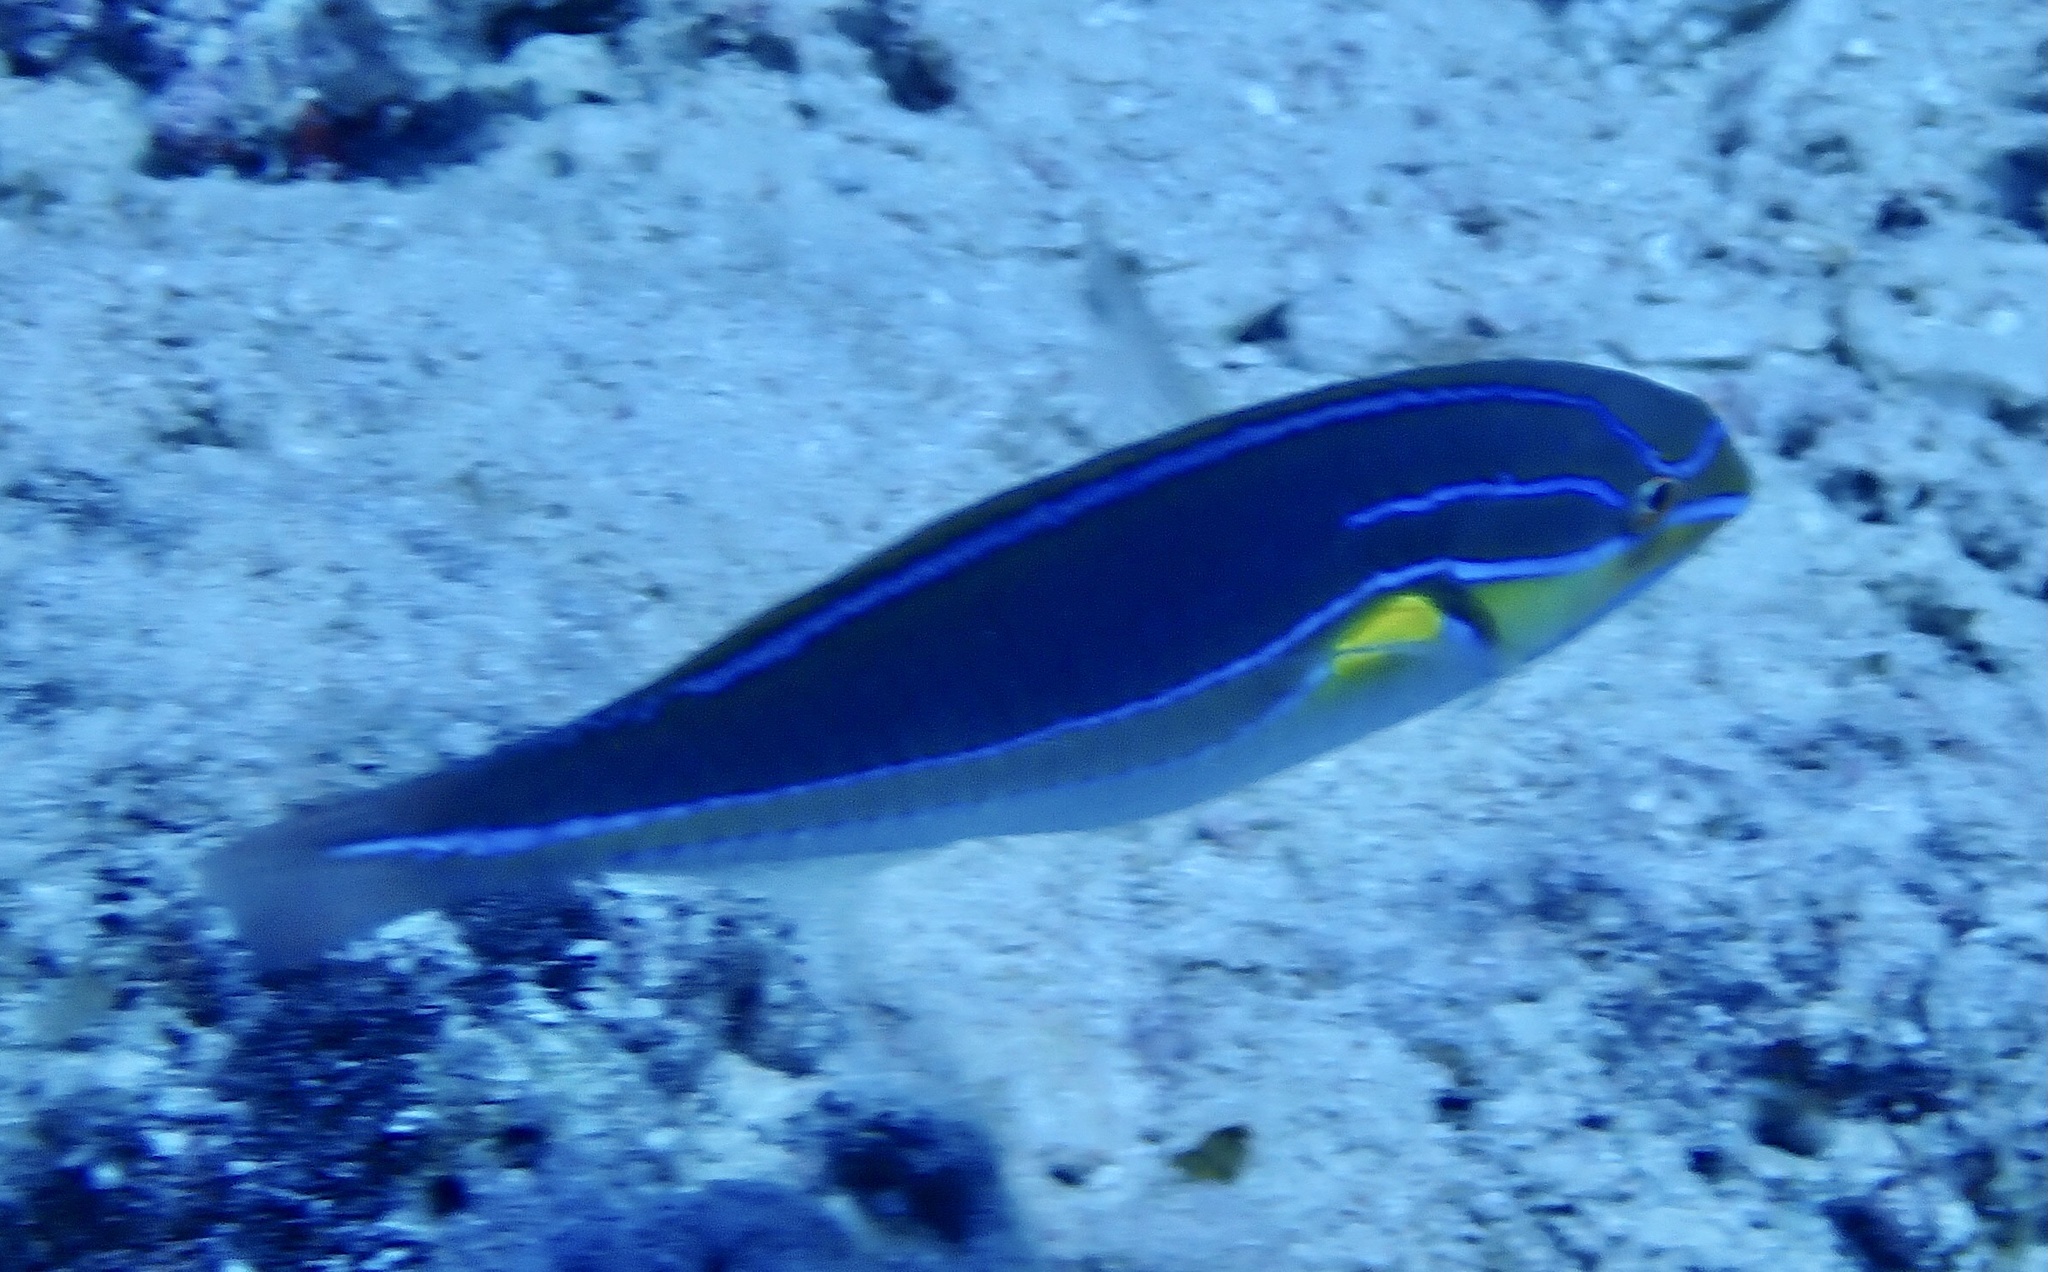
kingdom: Animalia
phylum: Chordata
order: Perciformes
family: Labridae
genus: Stethojulis
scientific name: Stethojulis albovittata
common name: Bluelined wrasse
